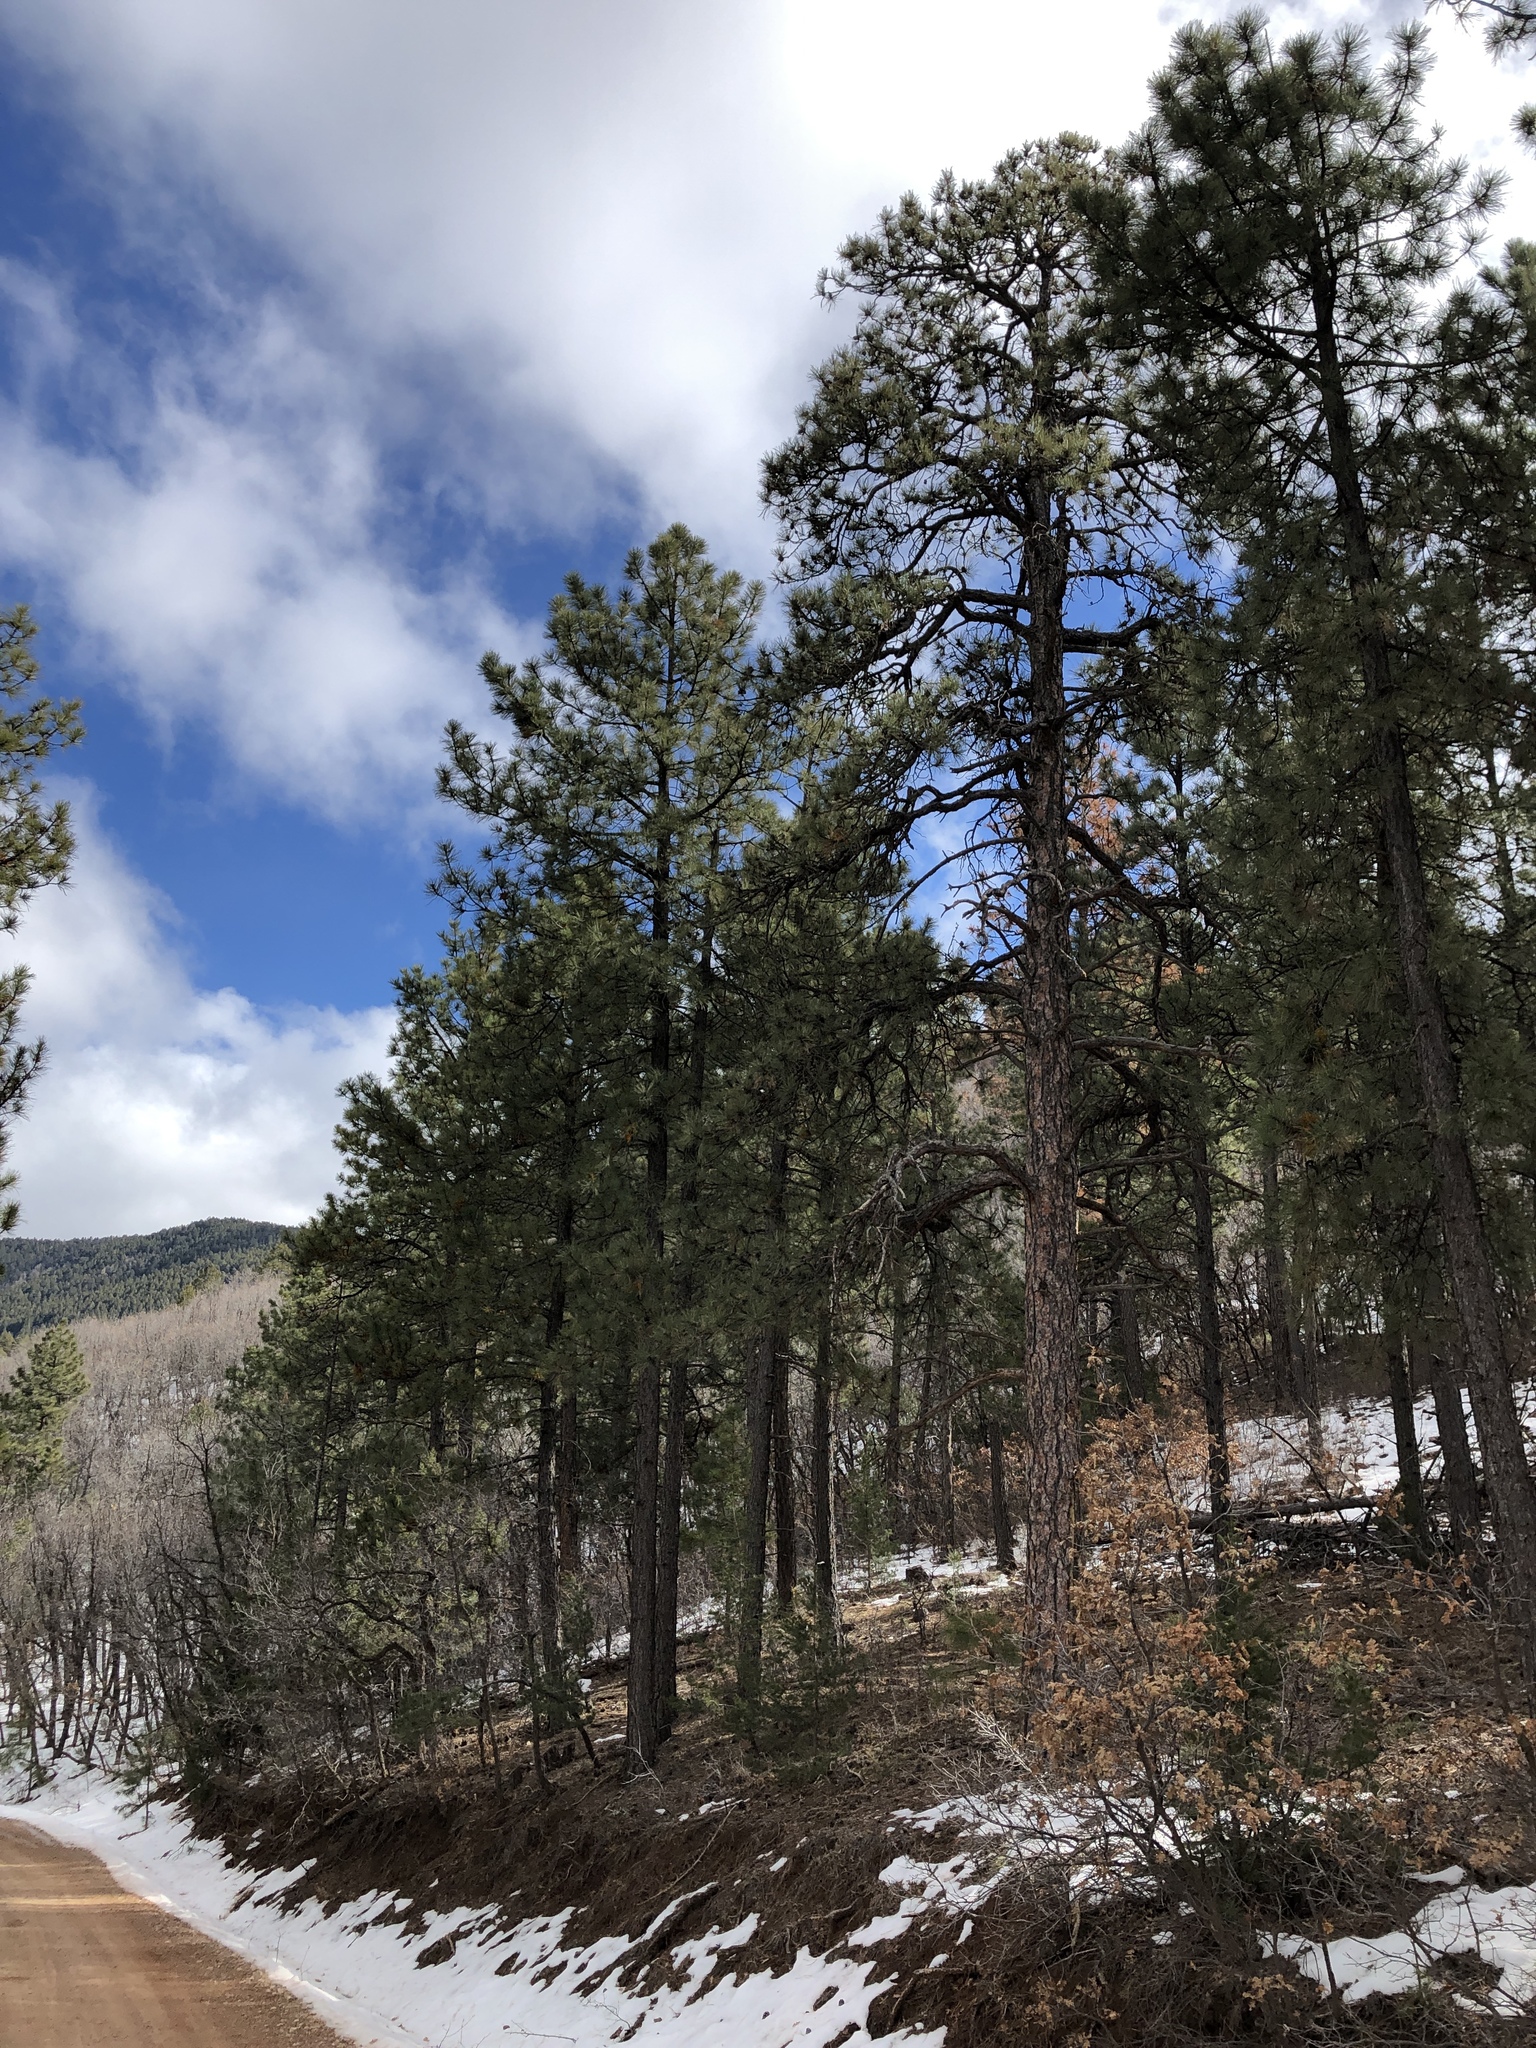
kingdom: Plantae
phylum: Tracheophyta
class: Pinopsida
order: Pinales
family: Pinaceae
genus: Pinus
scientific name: Pinus ponderosa
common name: Western yellow-pine
